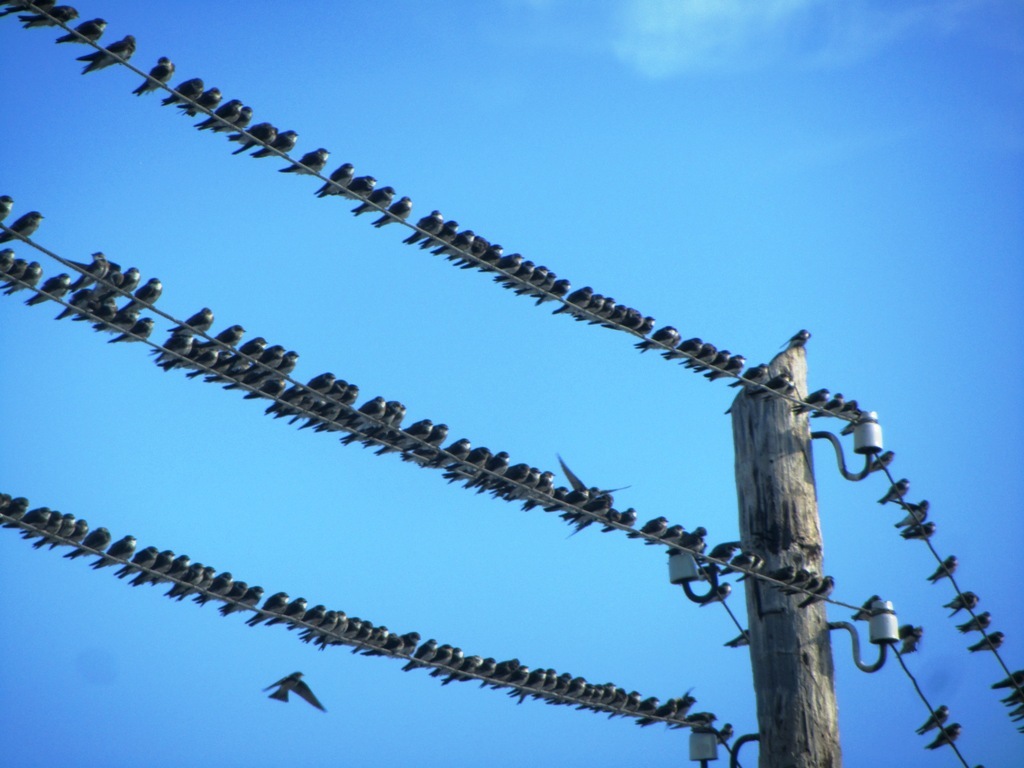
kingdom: Animalia
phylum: Chordata
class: Aves
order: Passeriformes
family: Hirundinidae
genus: Riparia
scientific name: Riparia riparia
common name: Sand martin
